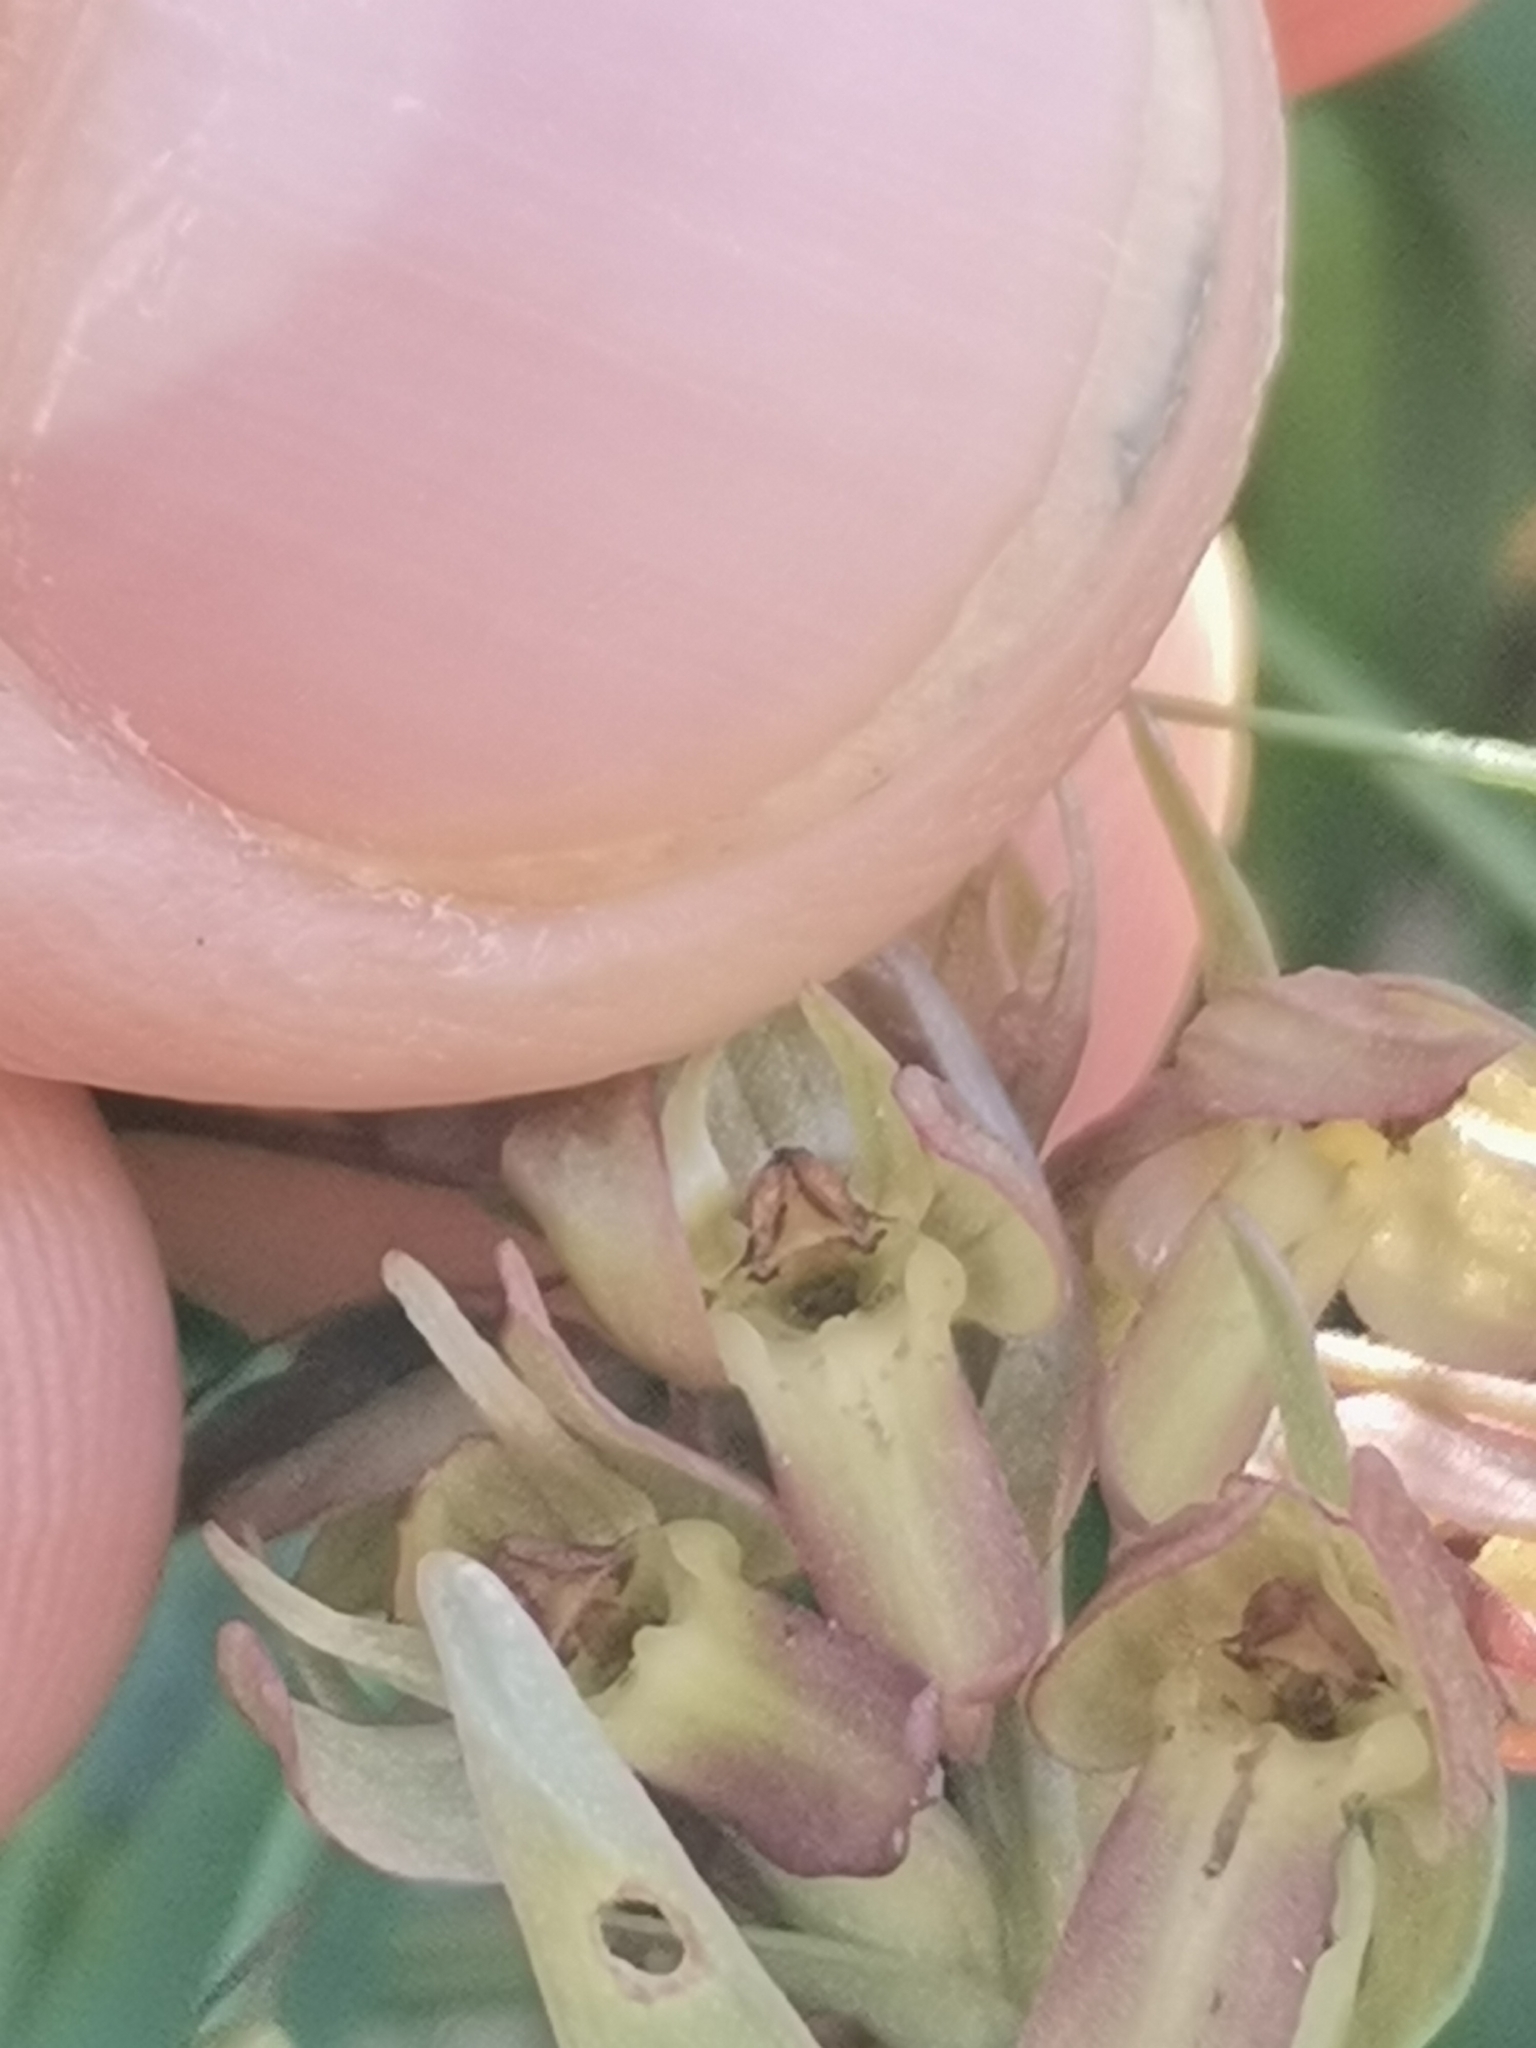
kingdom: Plantae
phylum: Tracheophyta
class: Liliopsida
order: Asparagales
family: Orchidaceae
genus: Dactylorhiza
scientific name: Dactylorhiza viridis
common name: Longbract frog orchid
